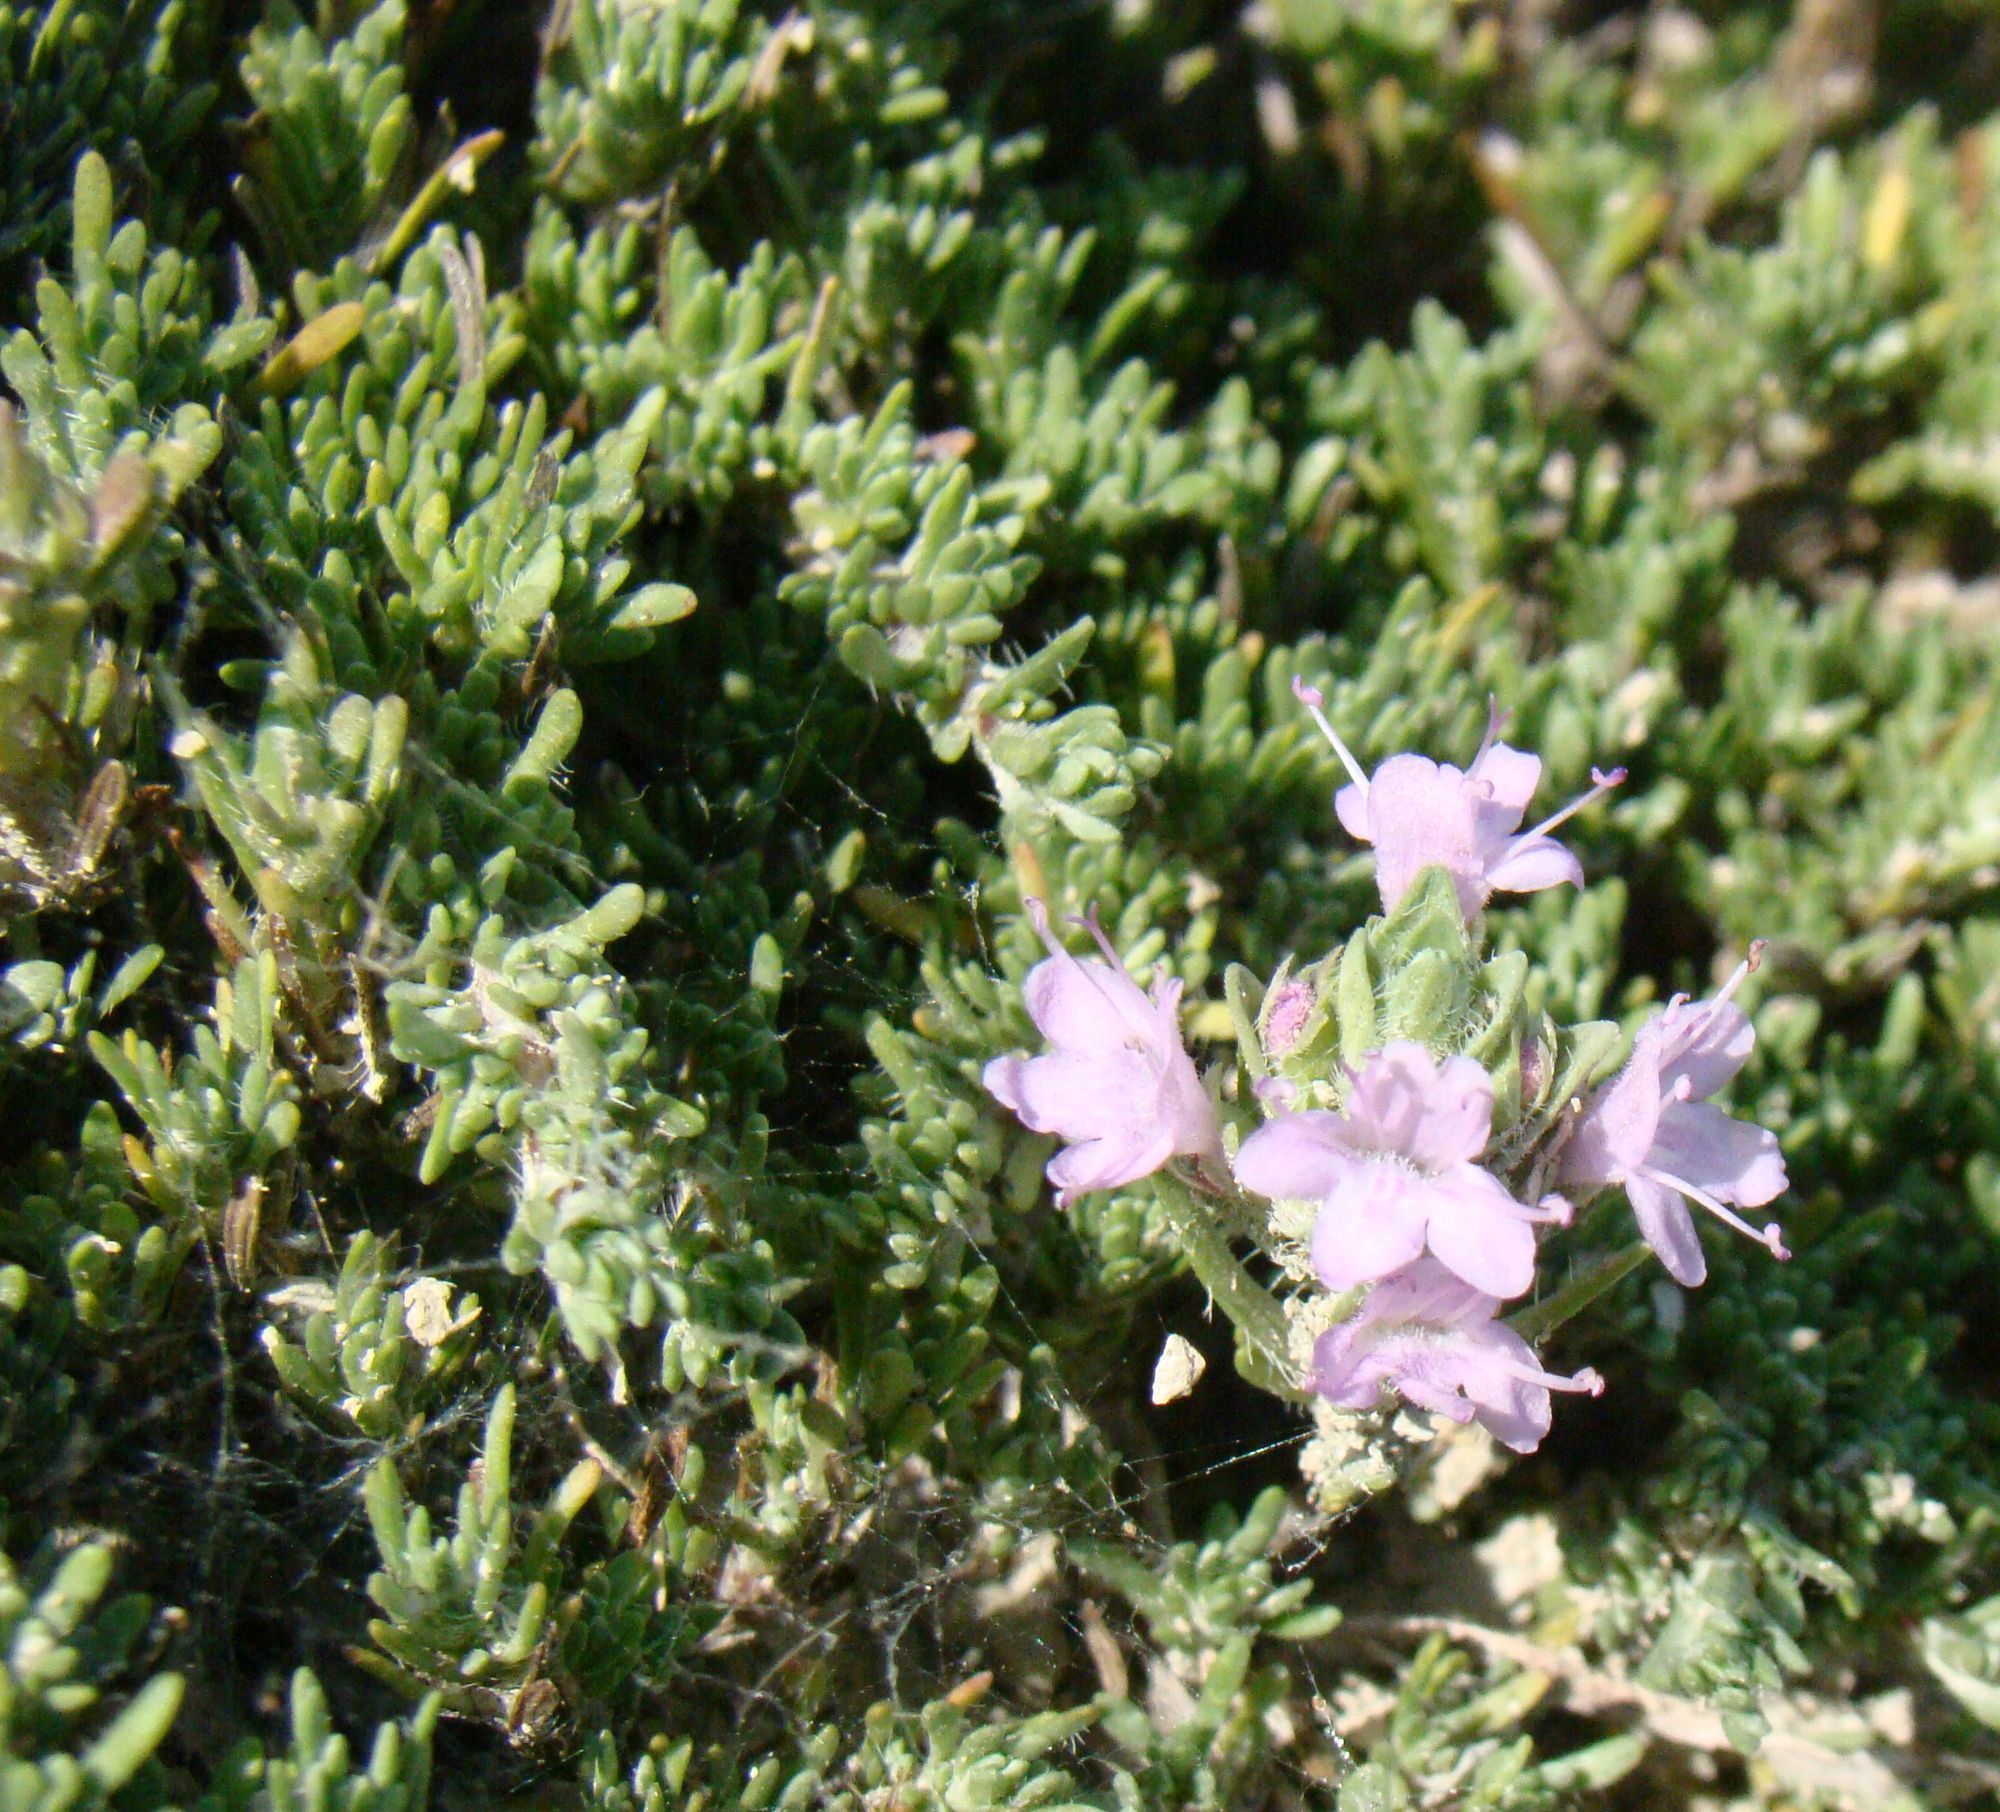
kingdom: Plantae
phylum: Tracheophyta
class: Magnoliopsida
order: Lamiales
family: Lamiaceae
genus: Thymus
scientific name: Thymus helendzhicus
